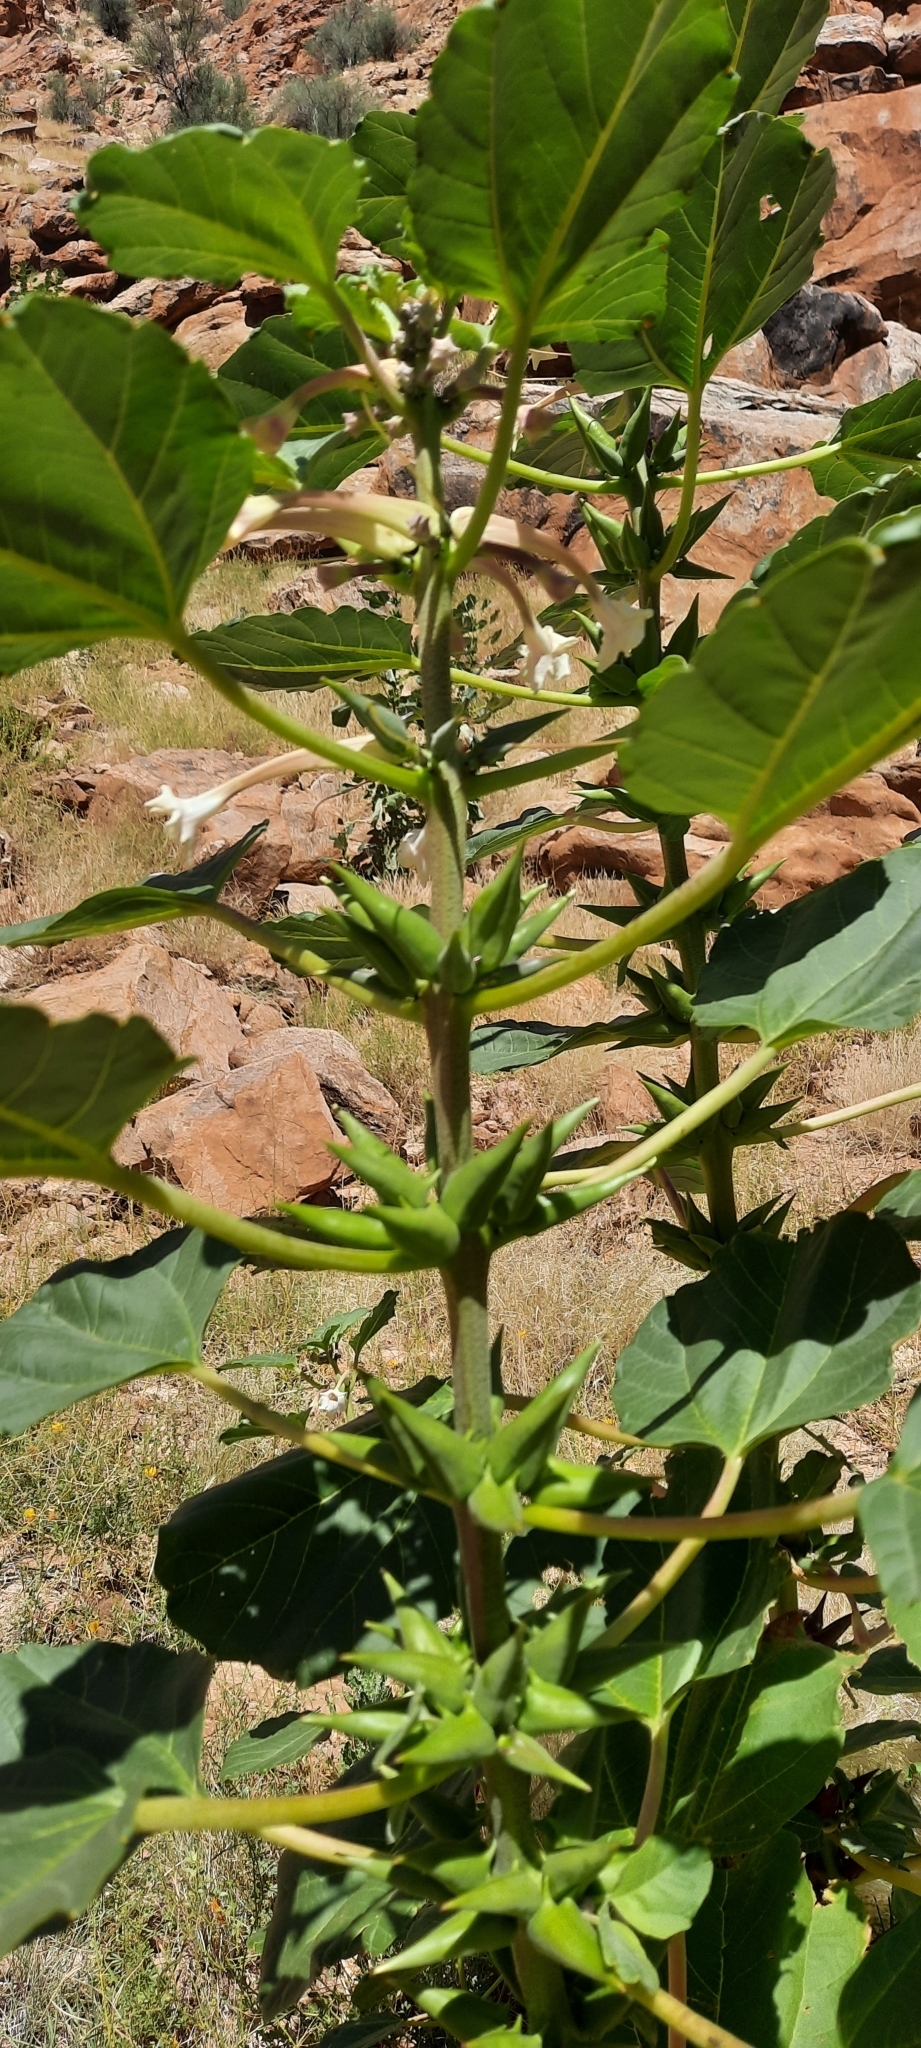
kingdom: Plantae
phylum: Tracheophyta
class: Magnoliopsida
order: Lamiales
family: Pedaliaceae
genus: Rogeria
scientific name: Rogeria longiflora
